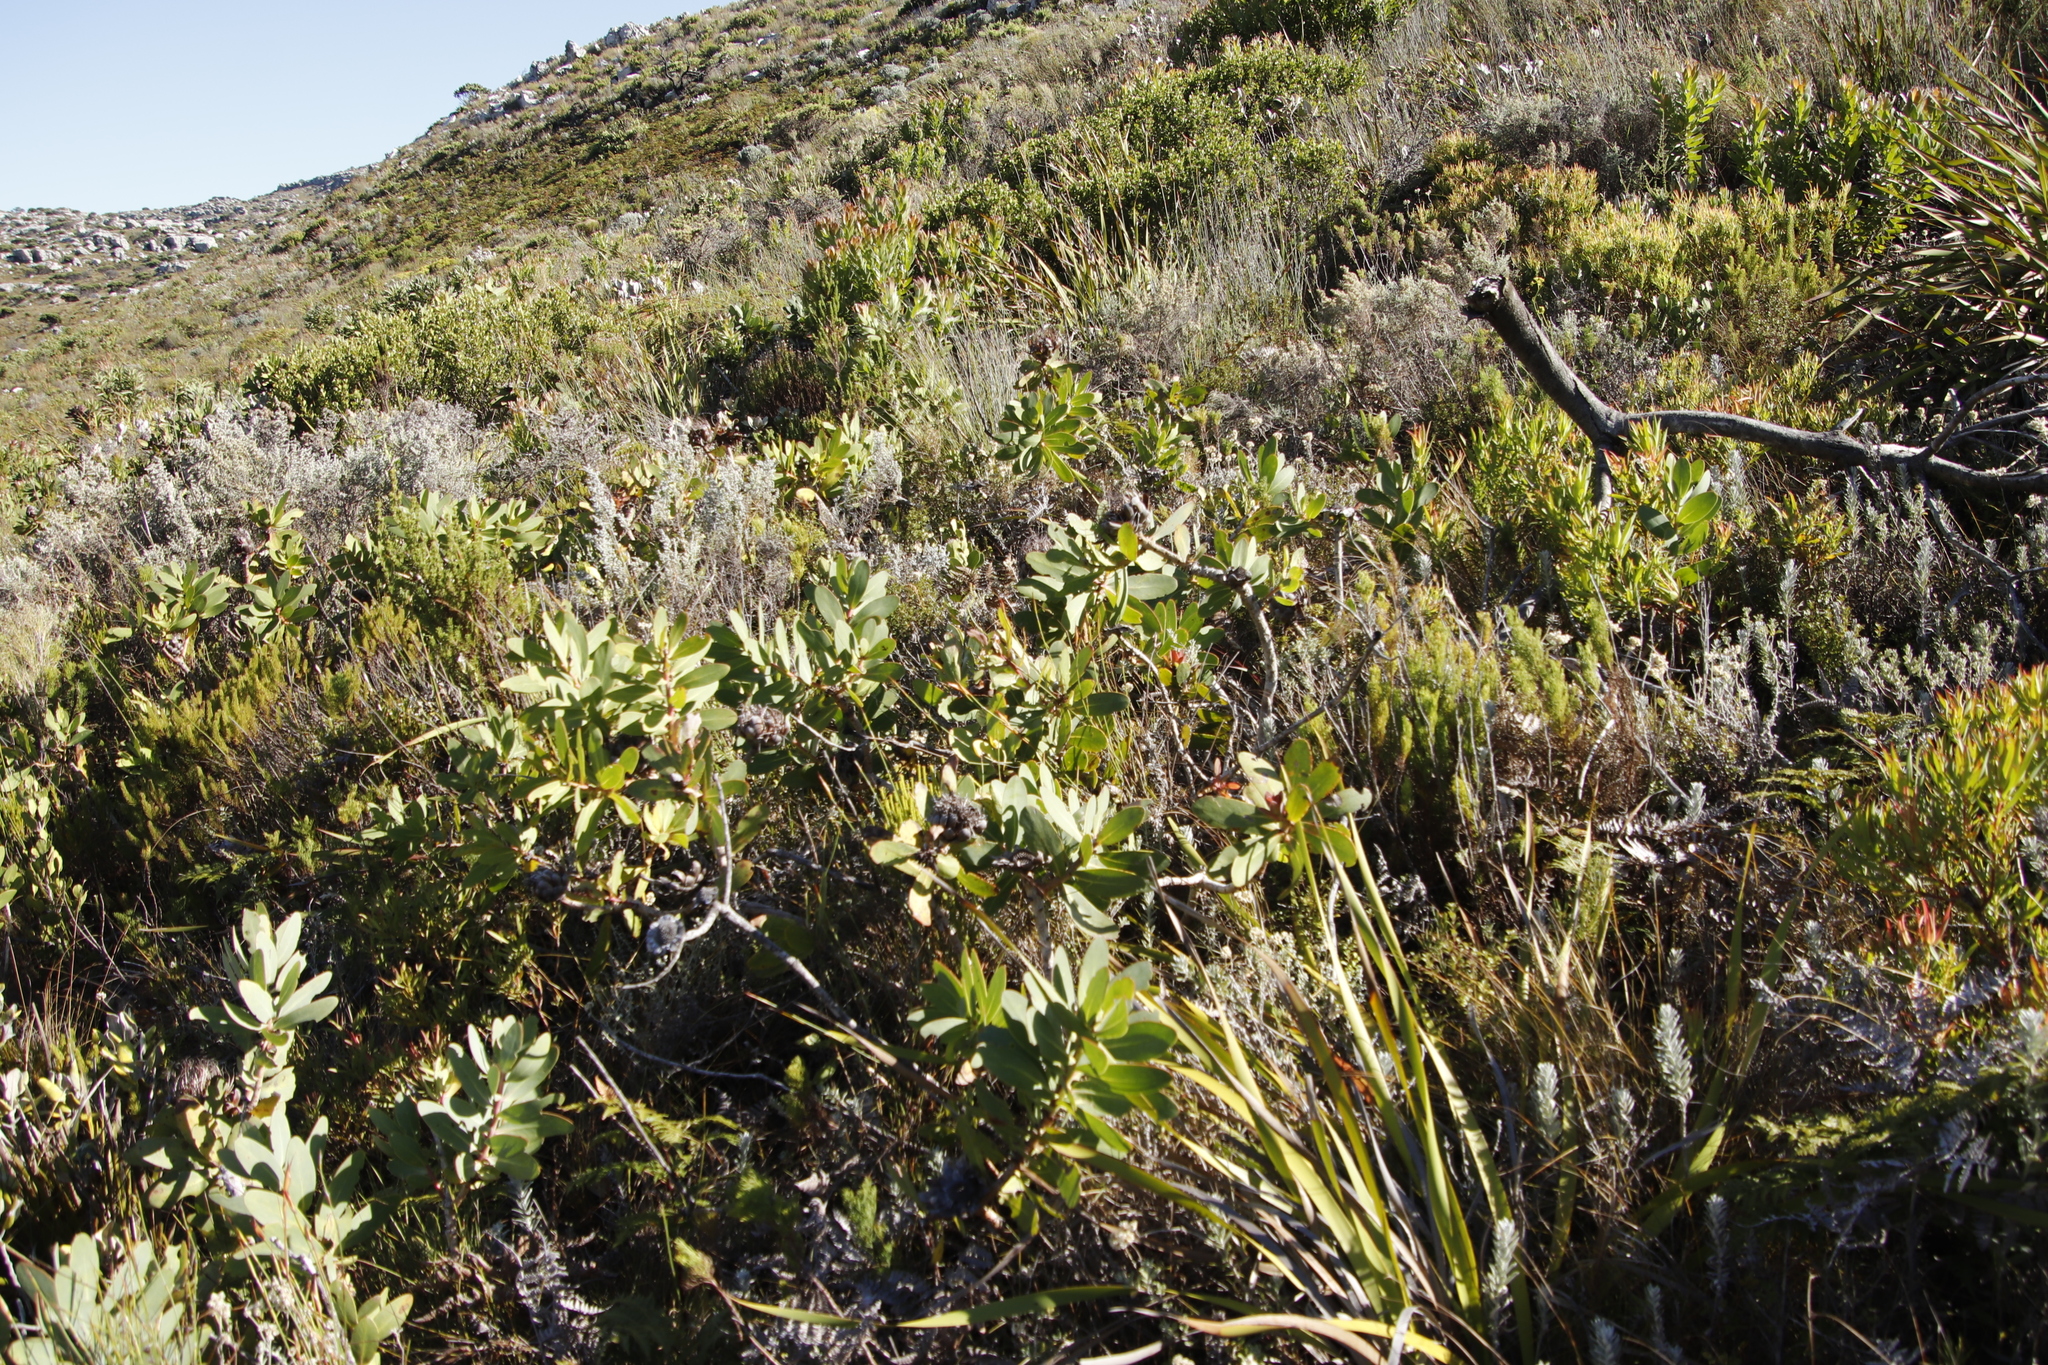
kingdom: Plantae
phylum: Tracheophyta
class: Magnoliopsida
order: Proteales
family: Proteaceae
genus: Protea
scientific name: Protea nitida
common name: Tree protea
